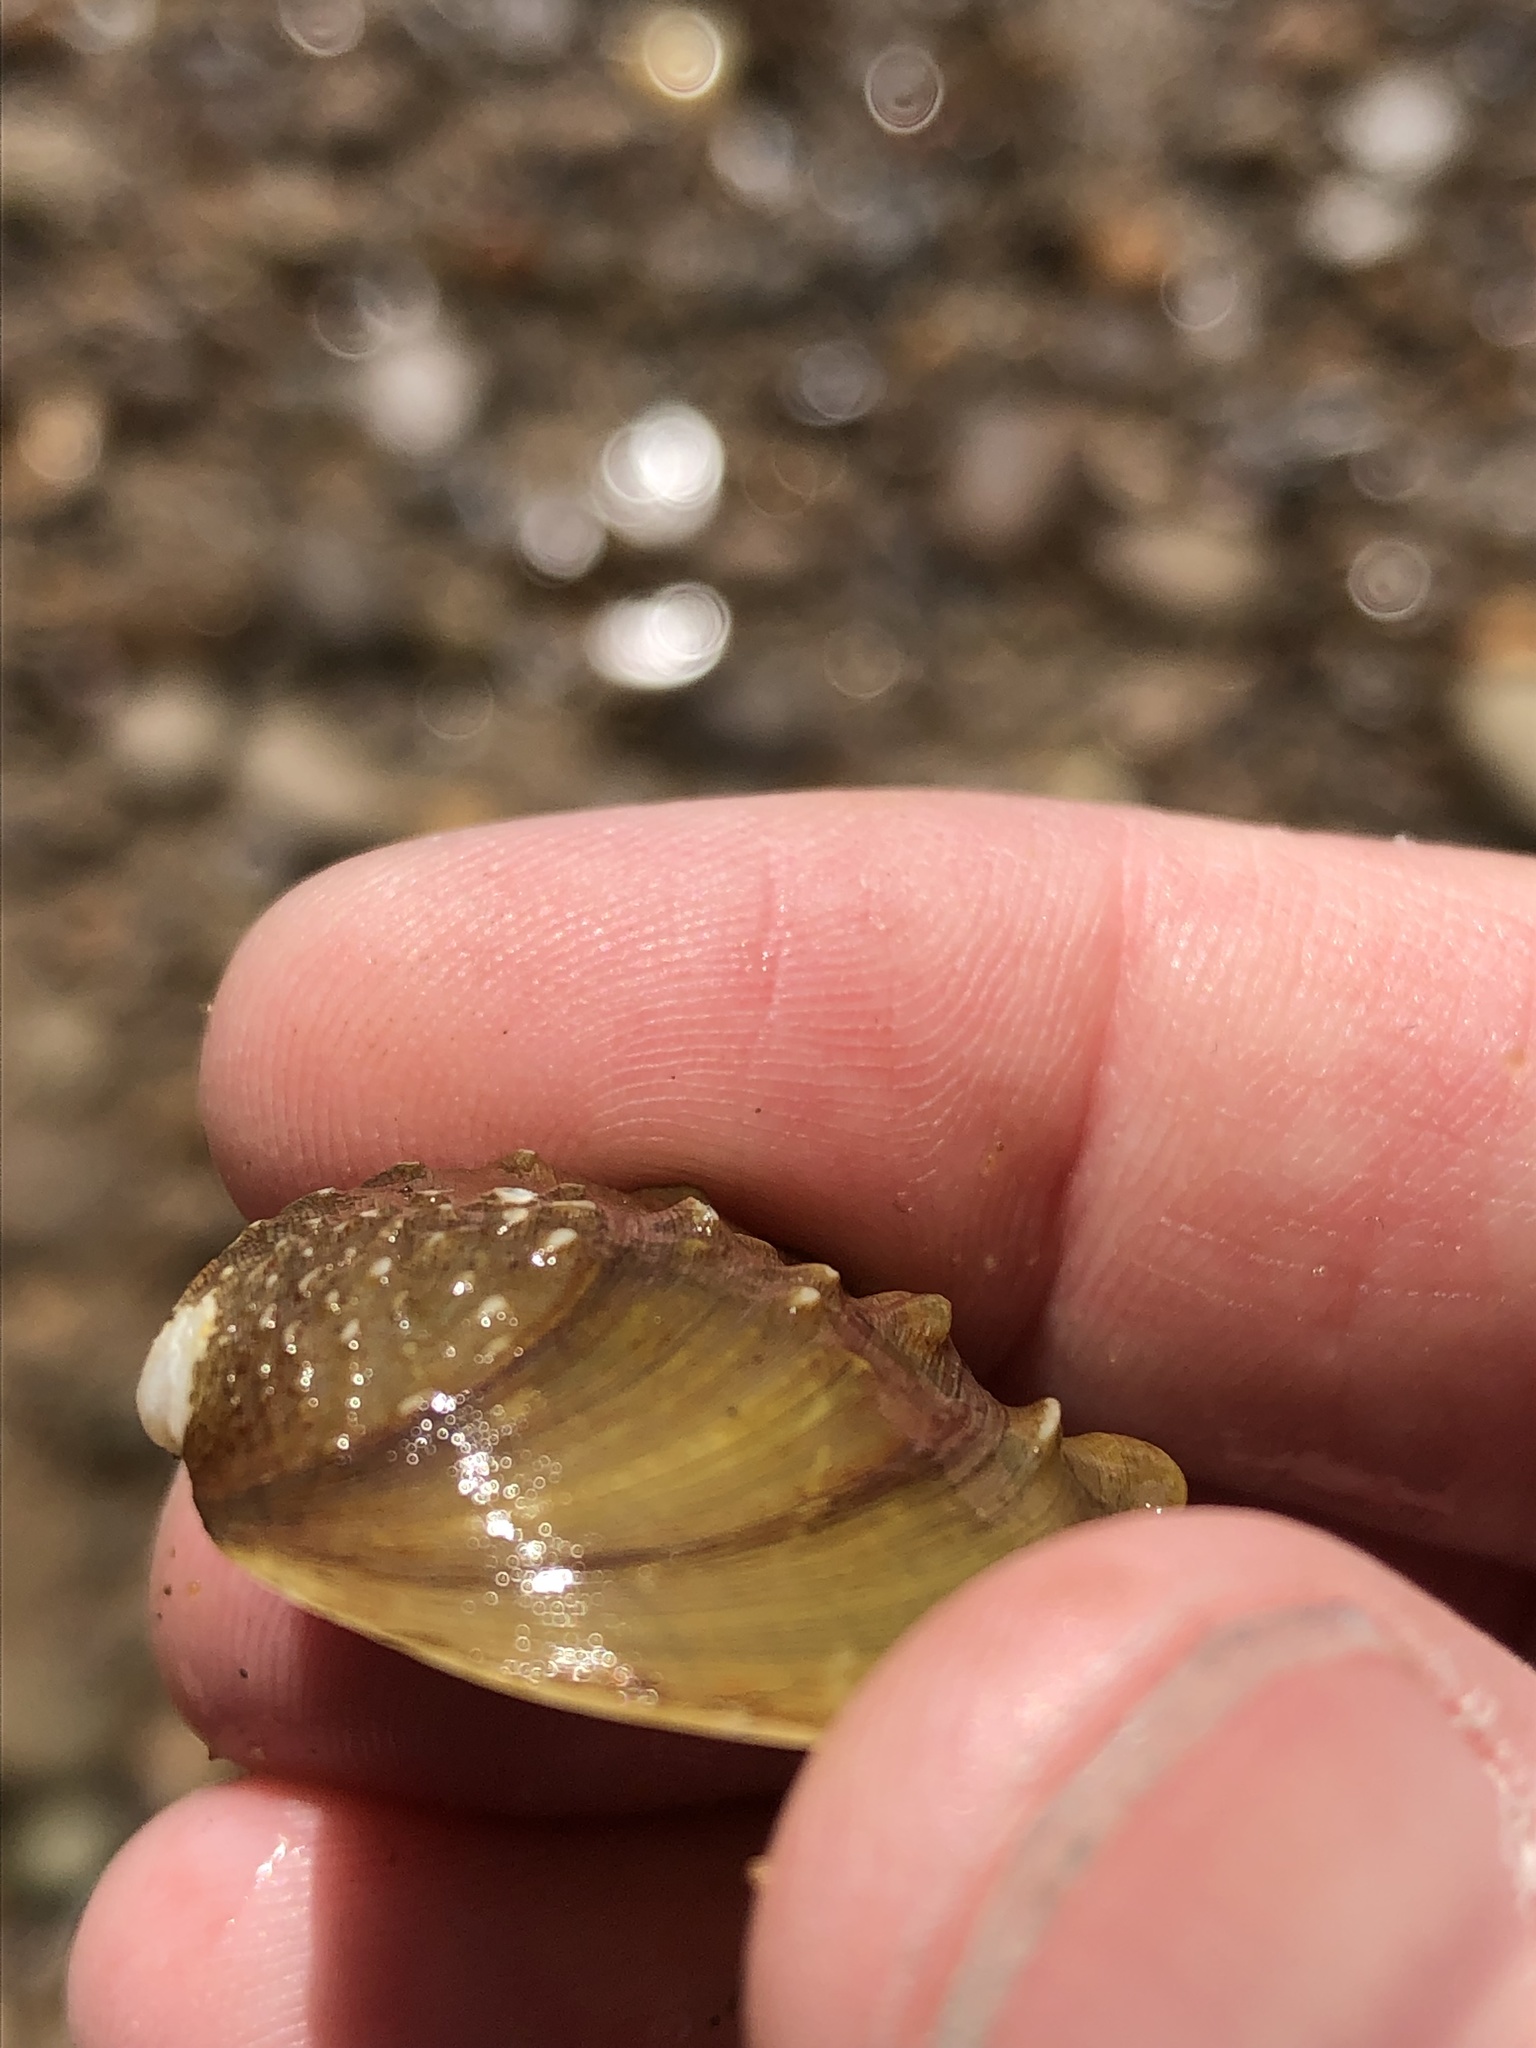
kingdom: Animalia
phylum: Mollusca
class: Bivalvia
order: Unionida
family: Unionidae
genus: Quadrula
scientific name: Quadrula quadrula
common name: Mapleleaf
